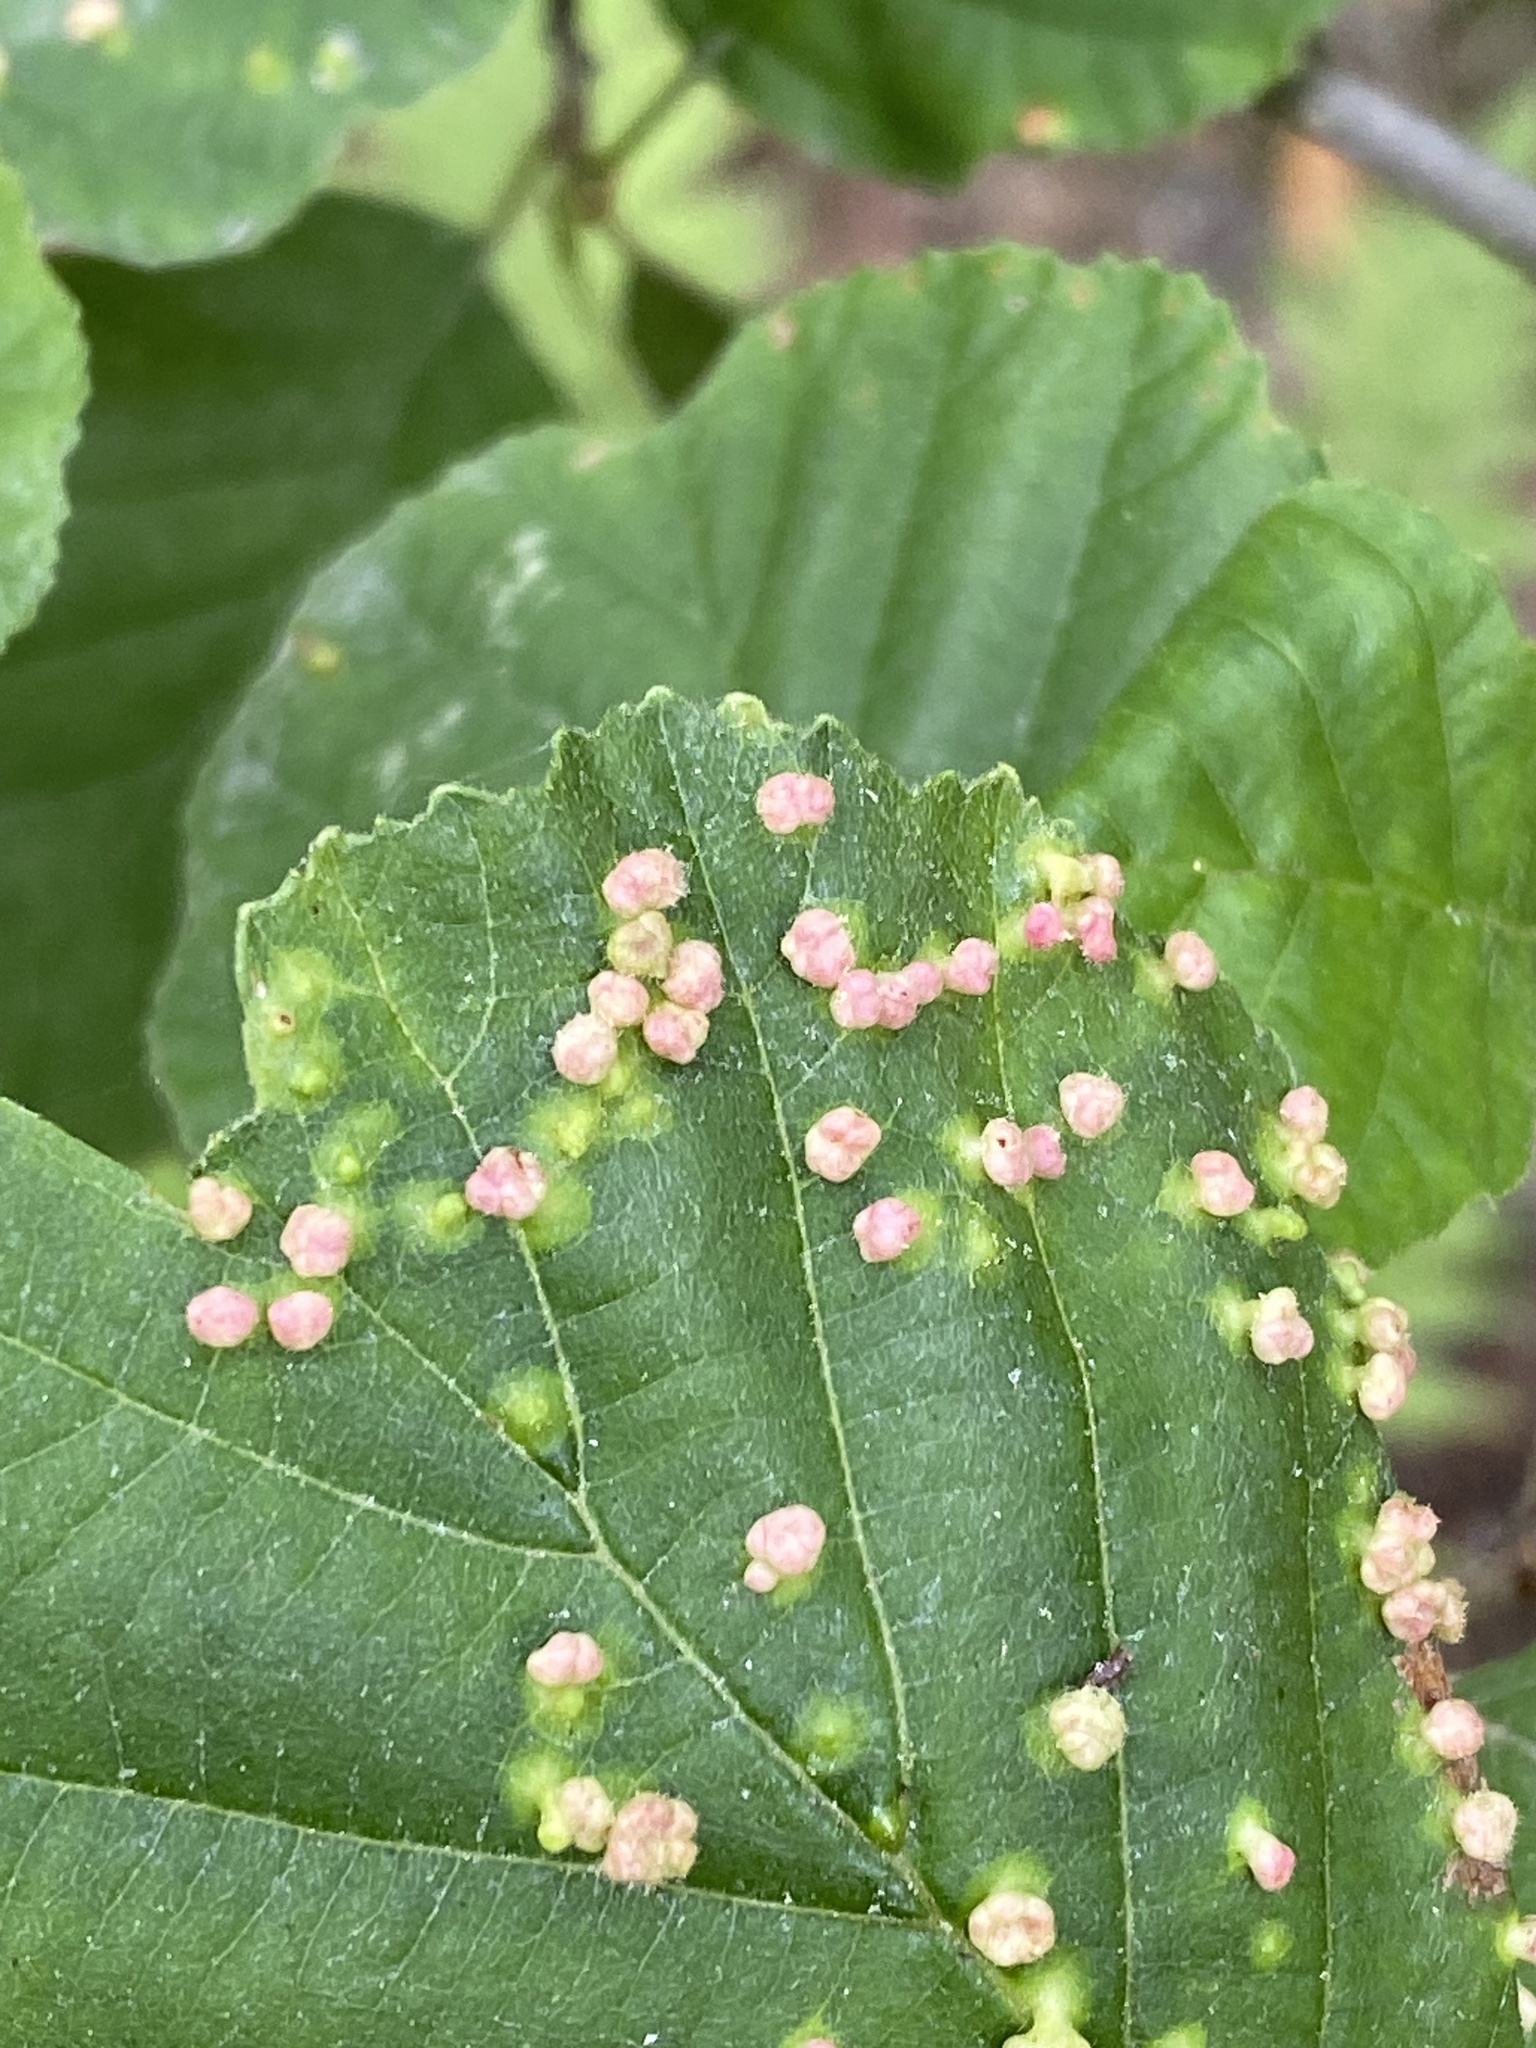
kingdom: Animalia
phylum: Arthropoda
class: Arachnida
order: Trombidiformes
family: Eriophyidae
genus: Eriophyes
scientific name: Eriophyes laevis
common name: Alder leaf gall mite
